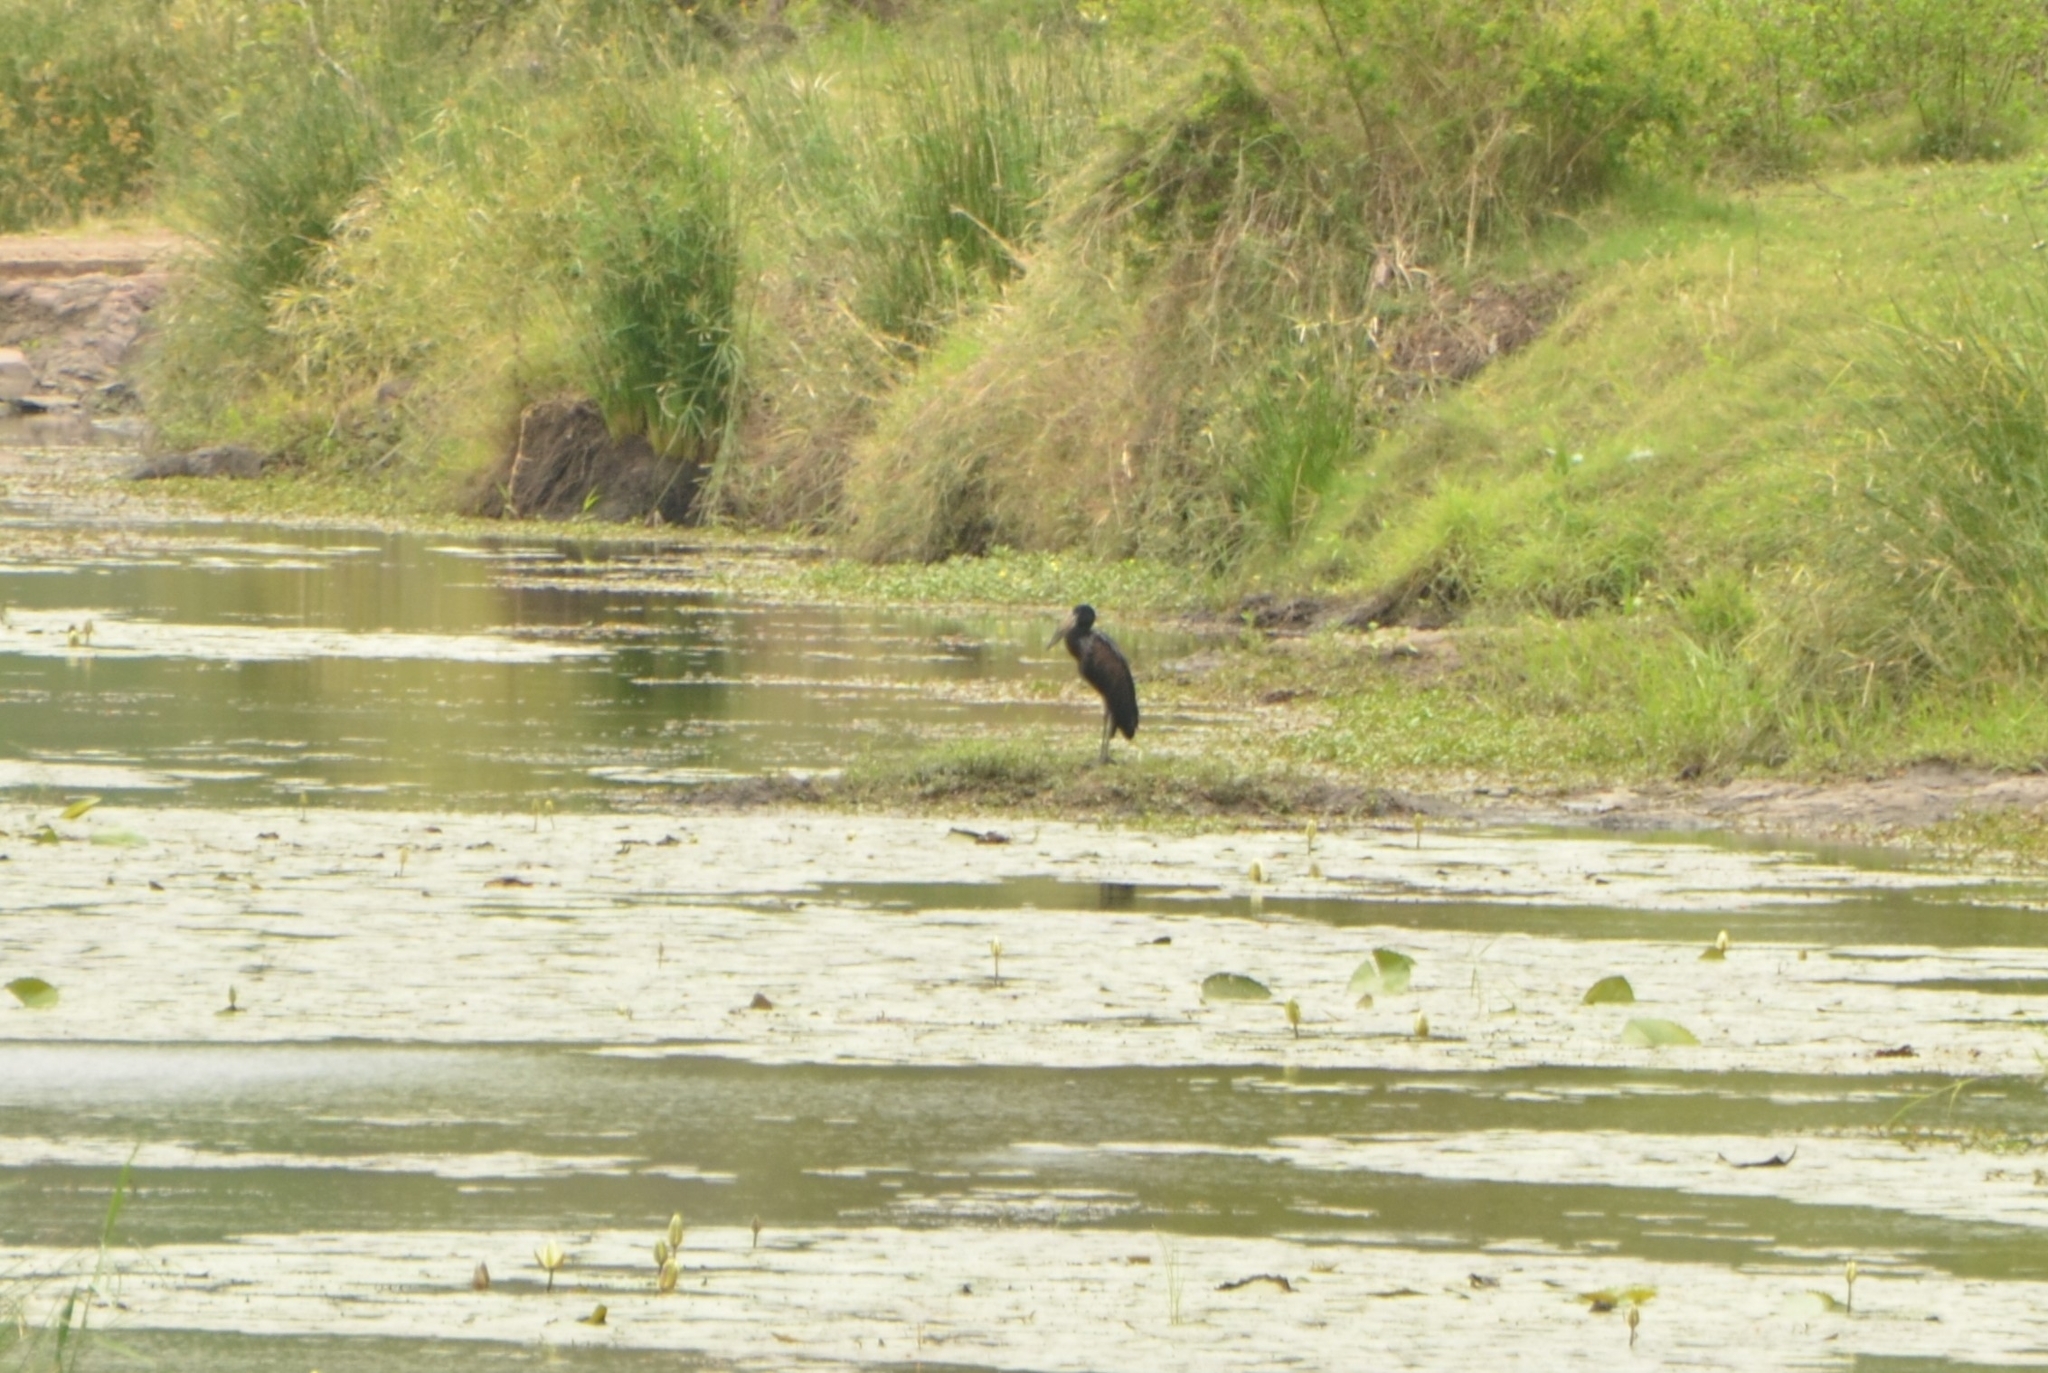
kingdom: Animalia
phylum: Chordata
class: Aves
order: Ciconiiformes
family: Ciconiidae
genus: Anastomus
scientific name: Anastomus lamelligerus
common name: African openbill
